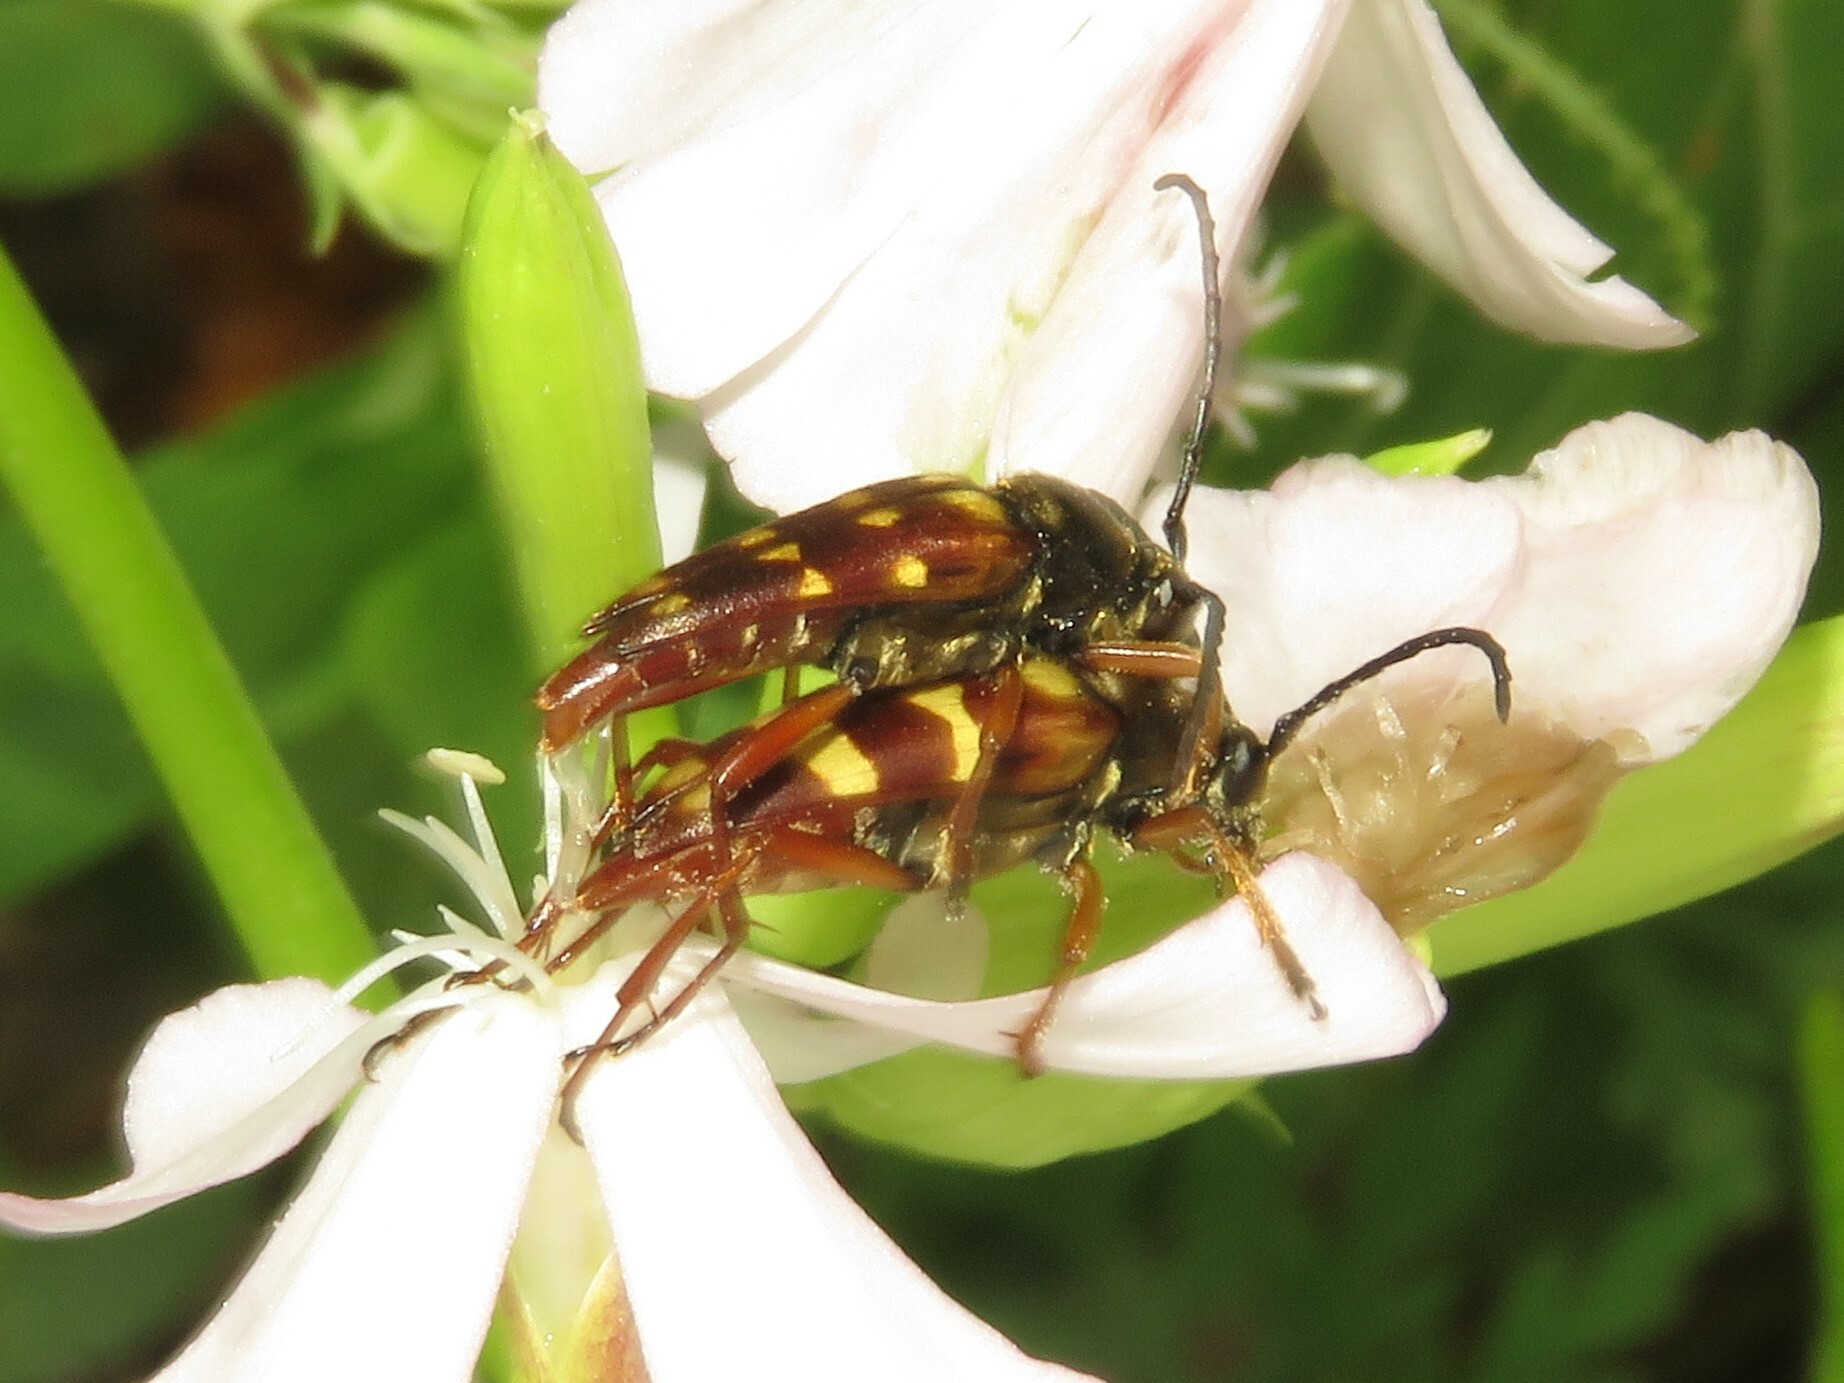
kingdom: Animalia
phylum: Arthropoda
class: Insecta
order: Coleoptera
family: Cerambycidae
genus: Typocerus
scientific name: Typocerus velutinus
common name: Banded longhorn beetle
